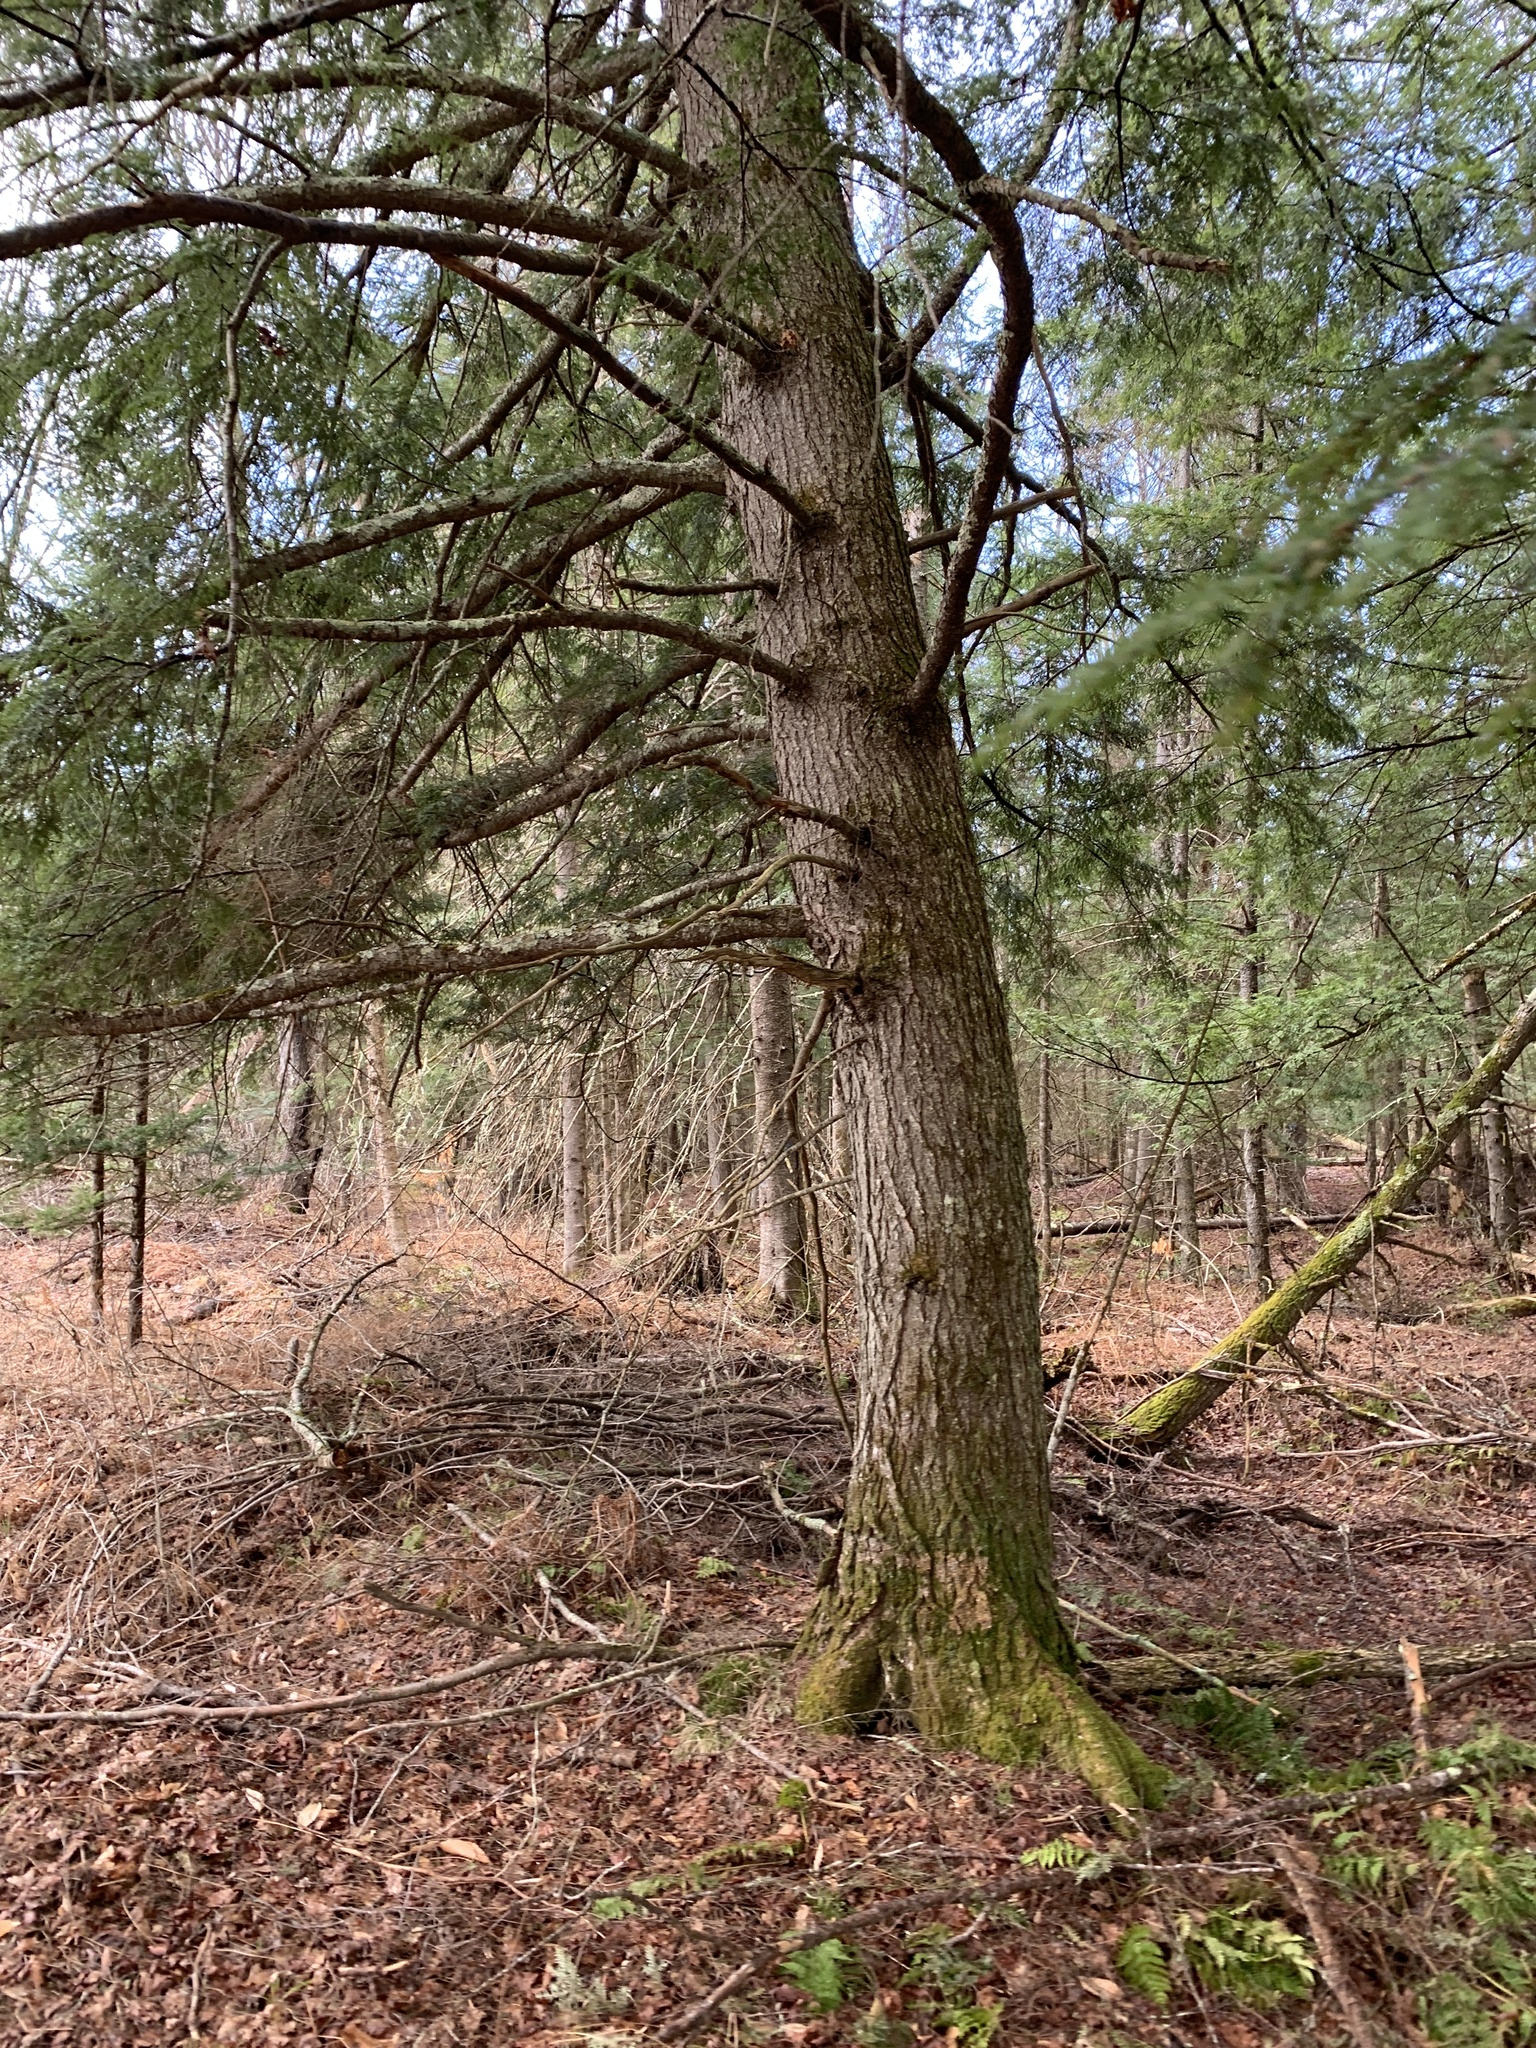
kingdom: Plantae
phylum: Tracheophyta
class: Pinopsida
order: Pinales
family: Pinaceae
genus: Tsuga
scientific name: Tsuga canadensis
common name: Eastern hemlock
